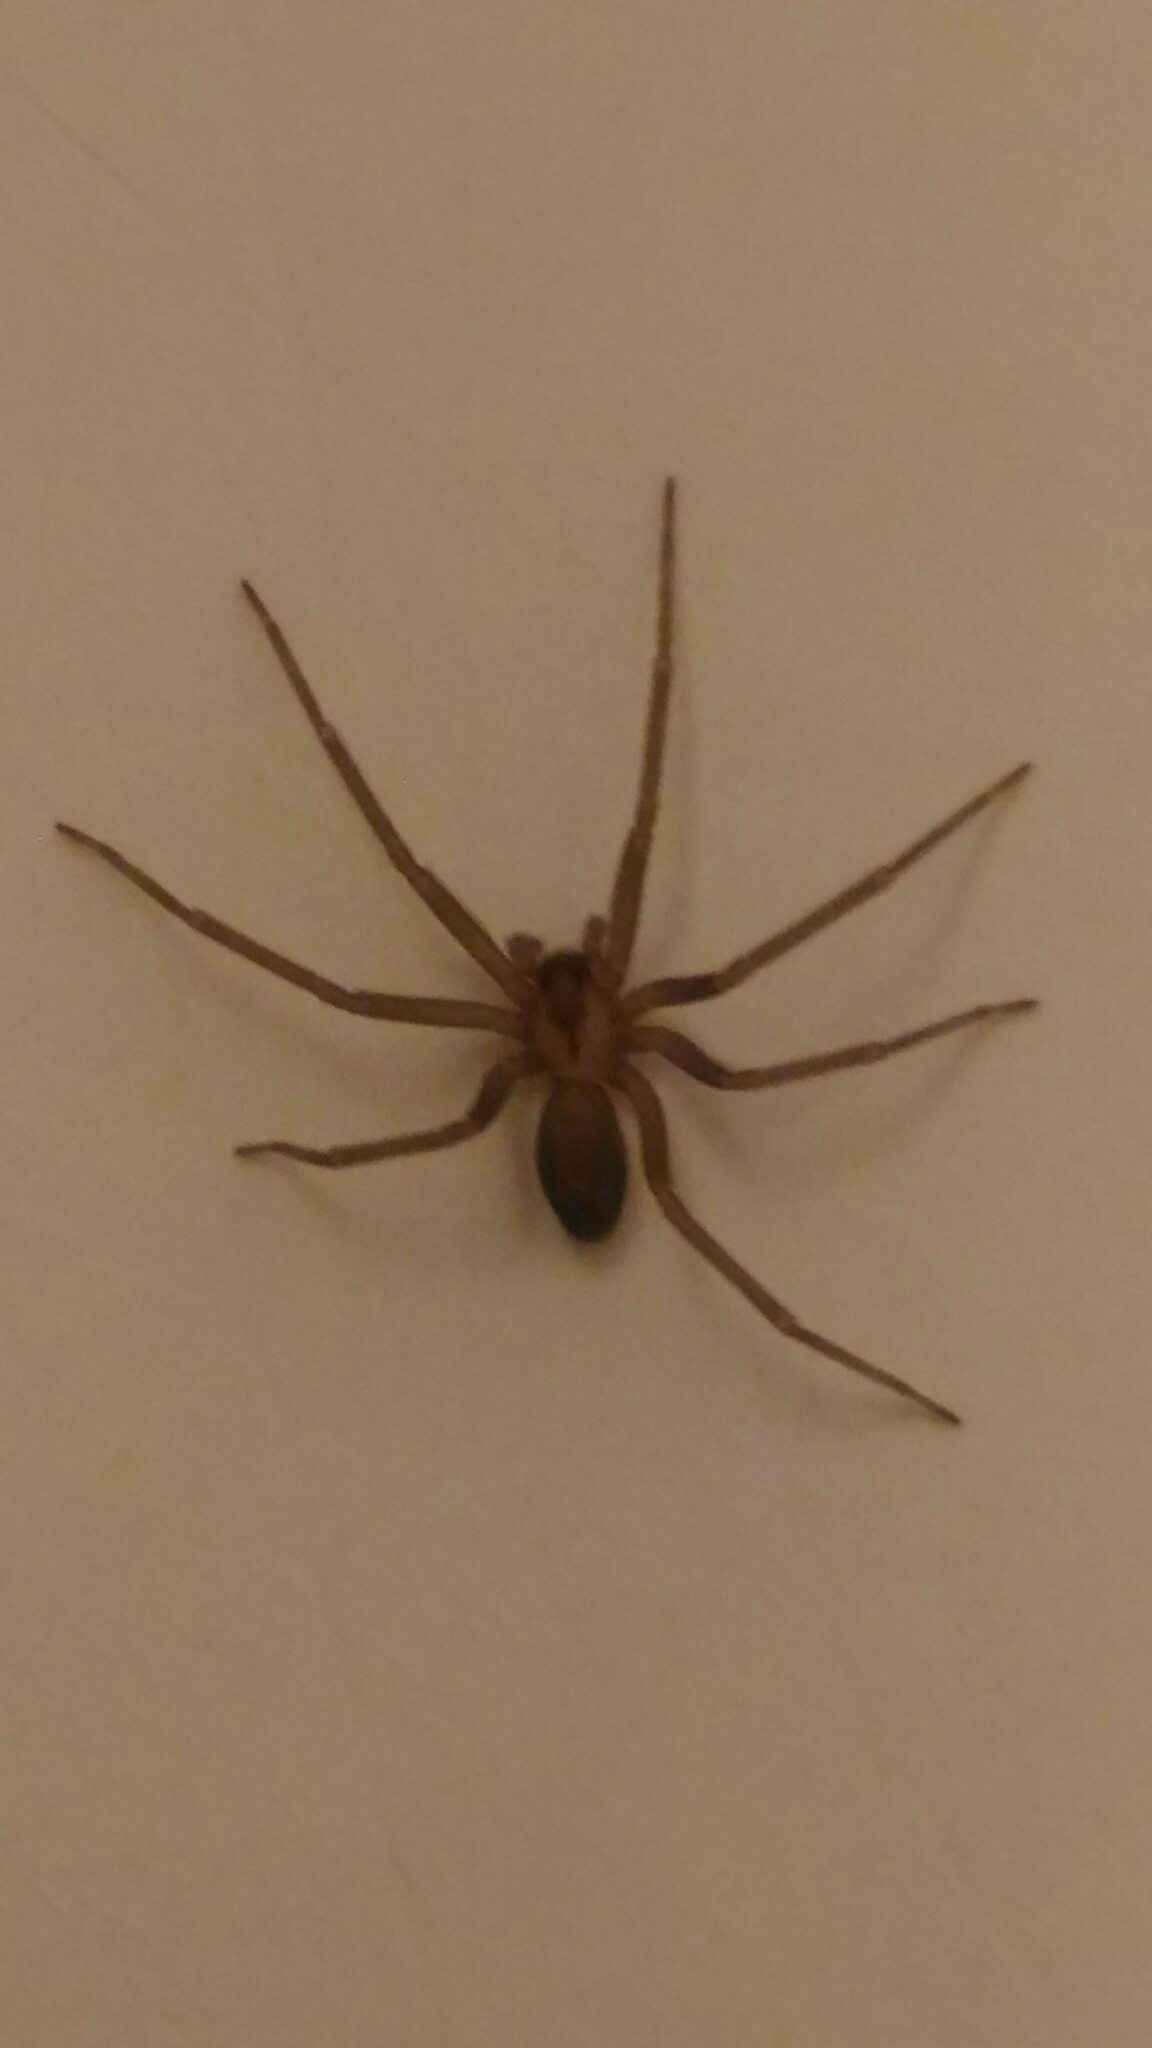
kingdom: Animalia
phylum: Arthropoda
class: Arachnida
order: Araneae
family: Sicariidae
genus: Loxosceles
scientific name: Loxosceles reclusa
